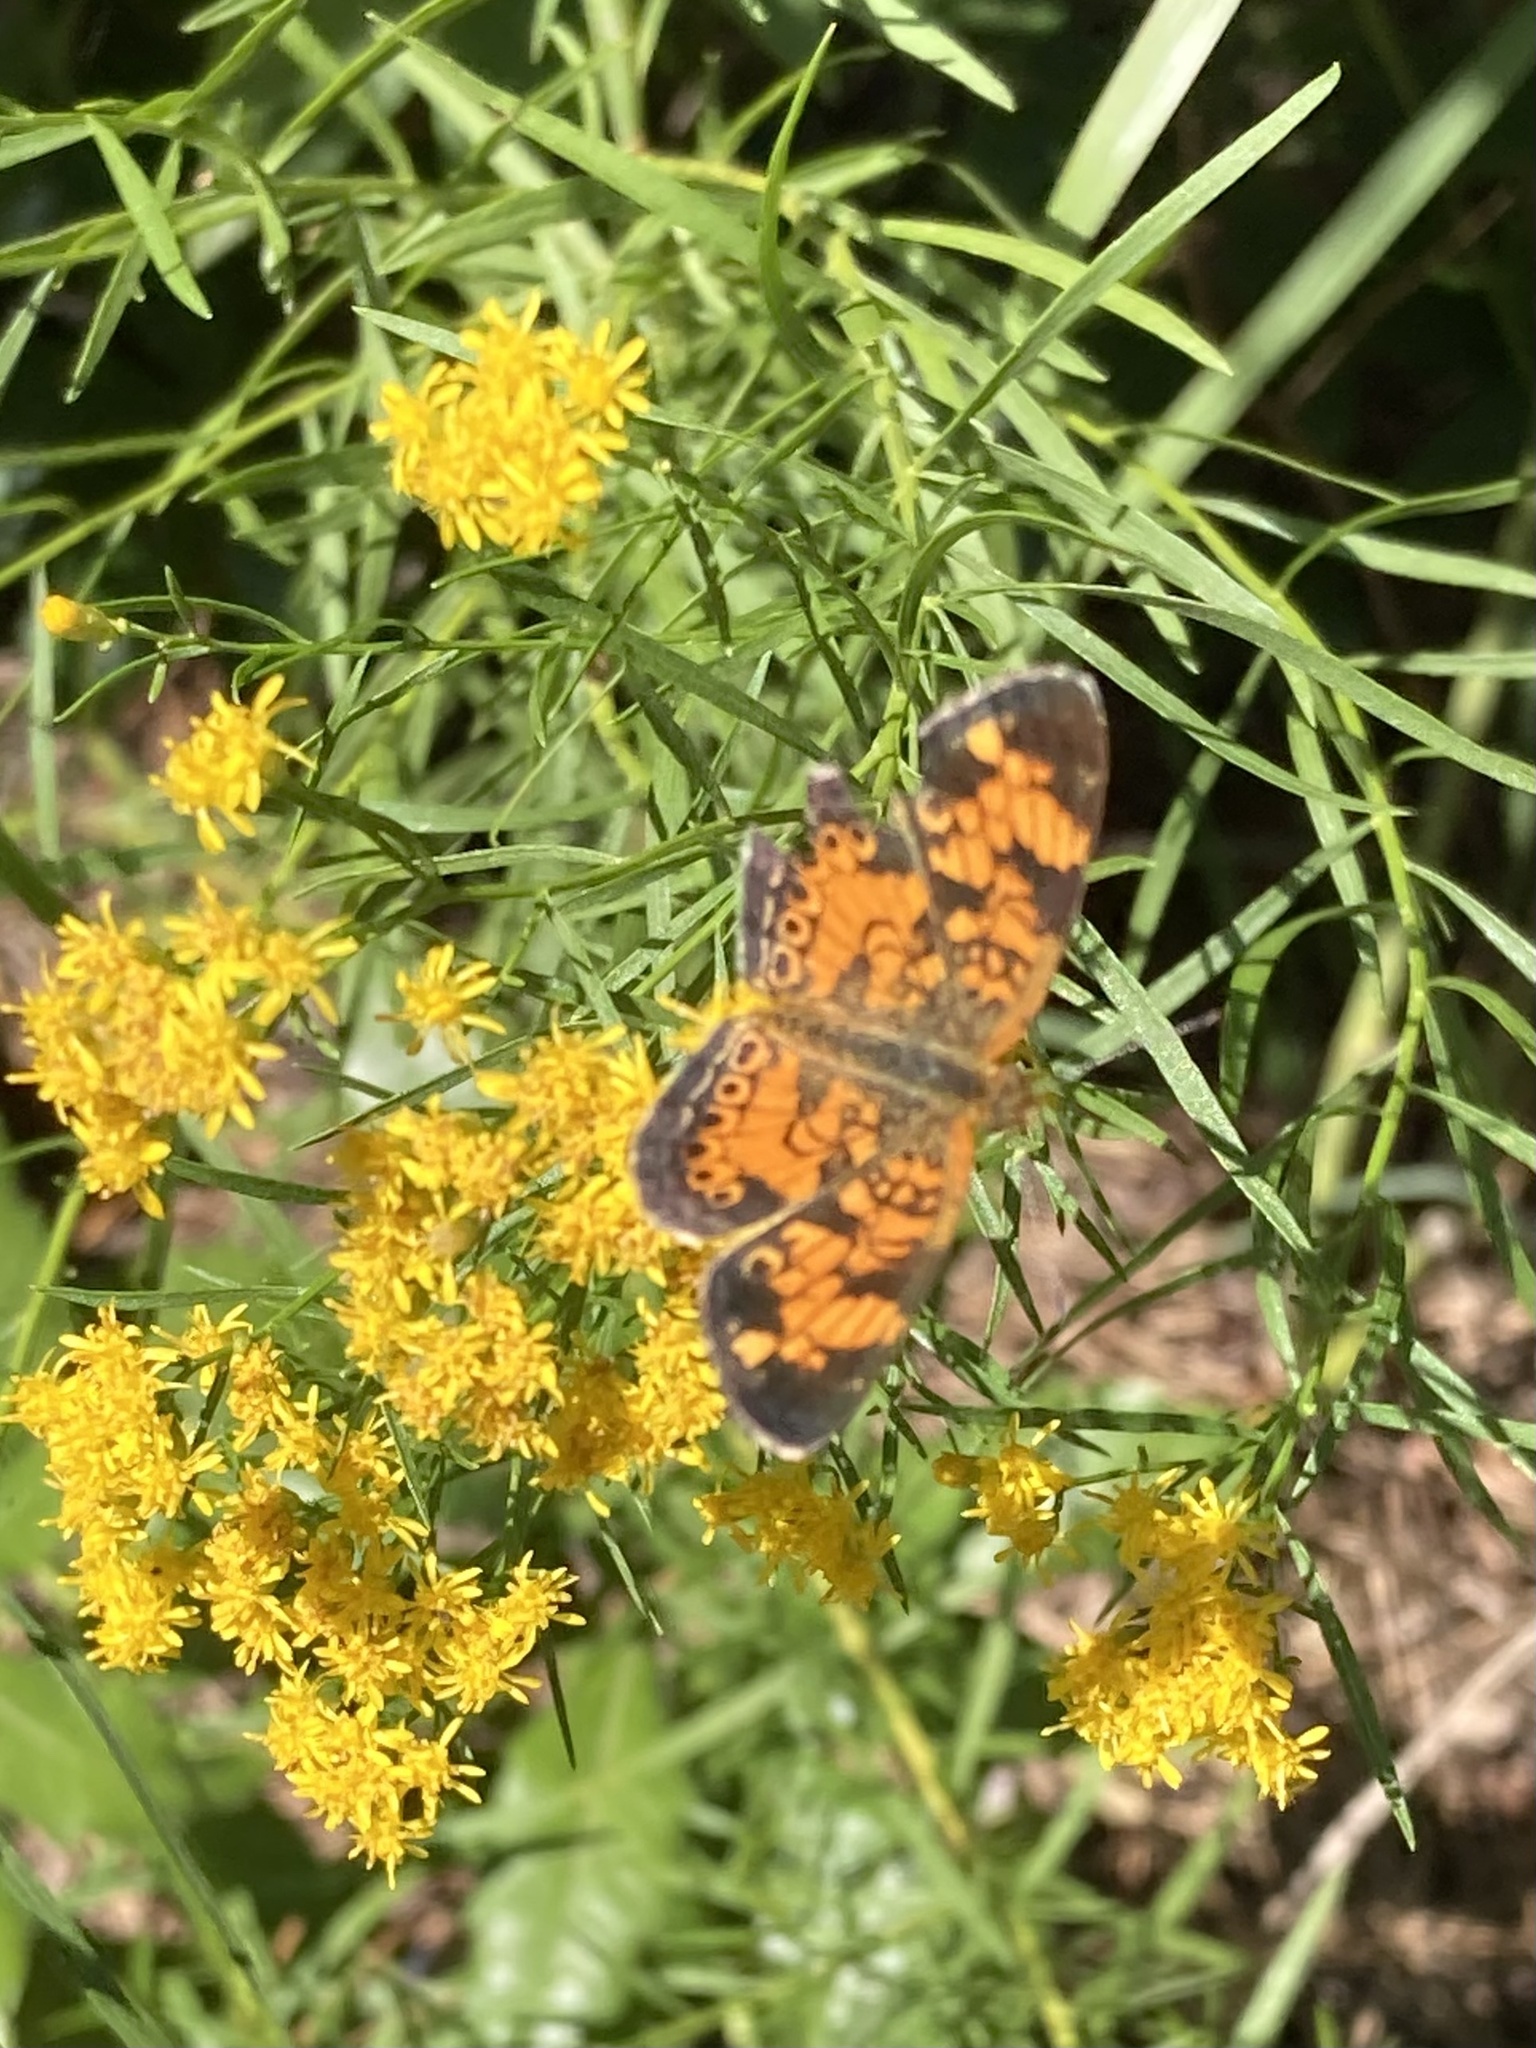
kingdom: Animalia
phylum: Arthropoda
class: Insecta
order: Lepidoptera
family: Nymphalidae
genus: Phyciodes
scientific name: Phyciodes tharos
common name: Pearl crescent
